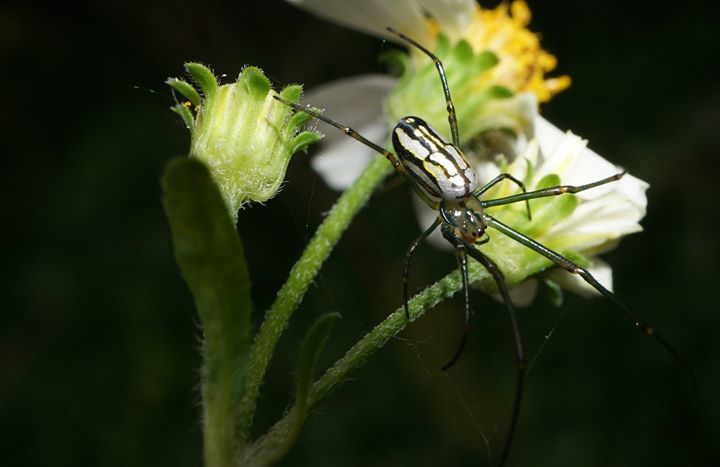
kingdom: Animalia
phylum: Arthropoda
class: Arachnida
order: Araneae
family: Tetragnathidae
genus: Leucauge
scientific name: Leucauge argyra
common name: Longjawed orb weavers
